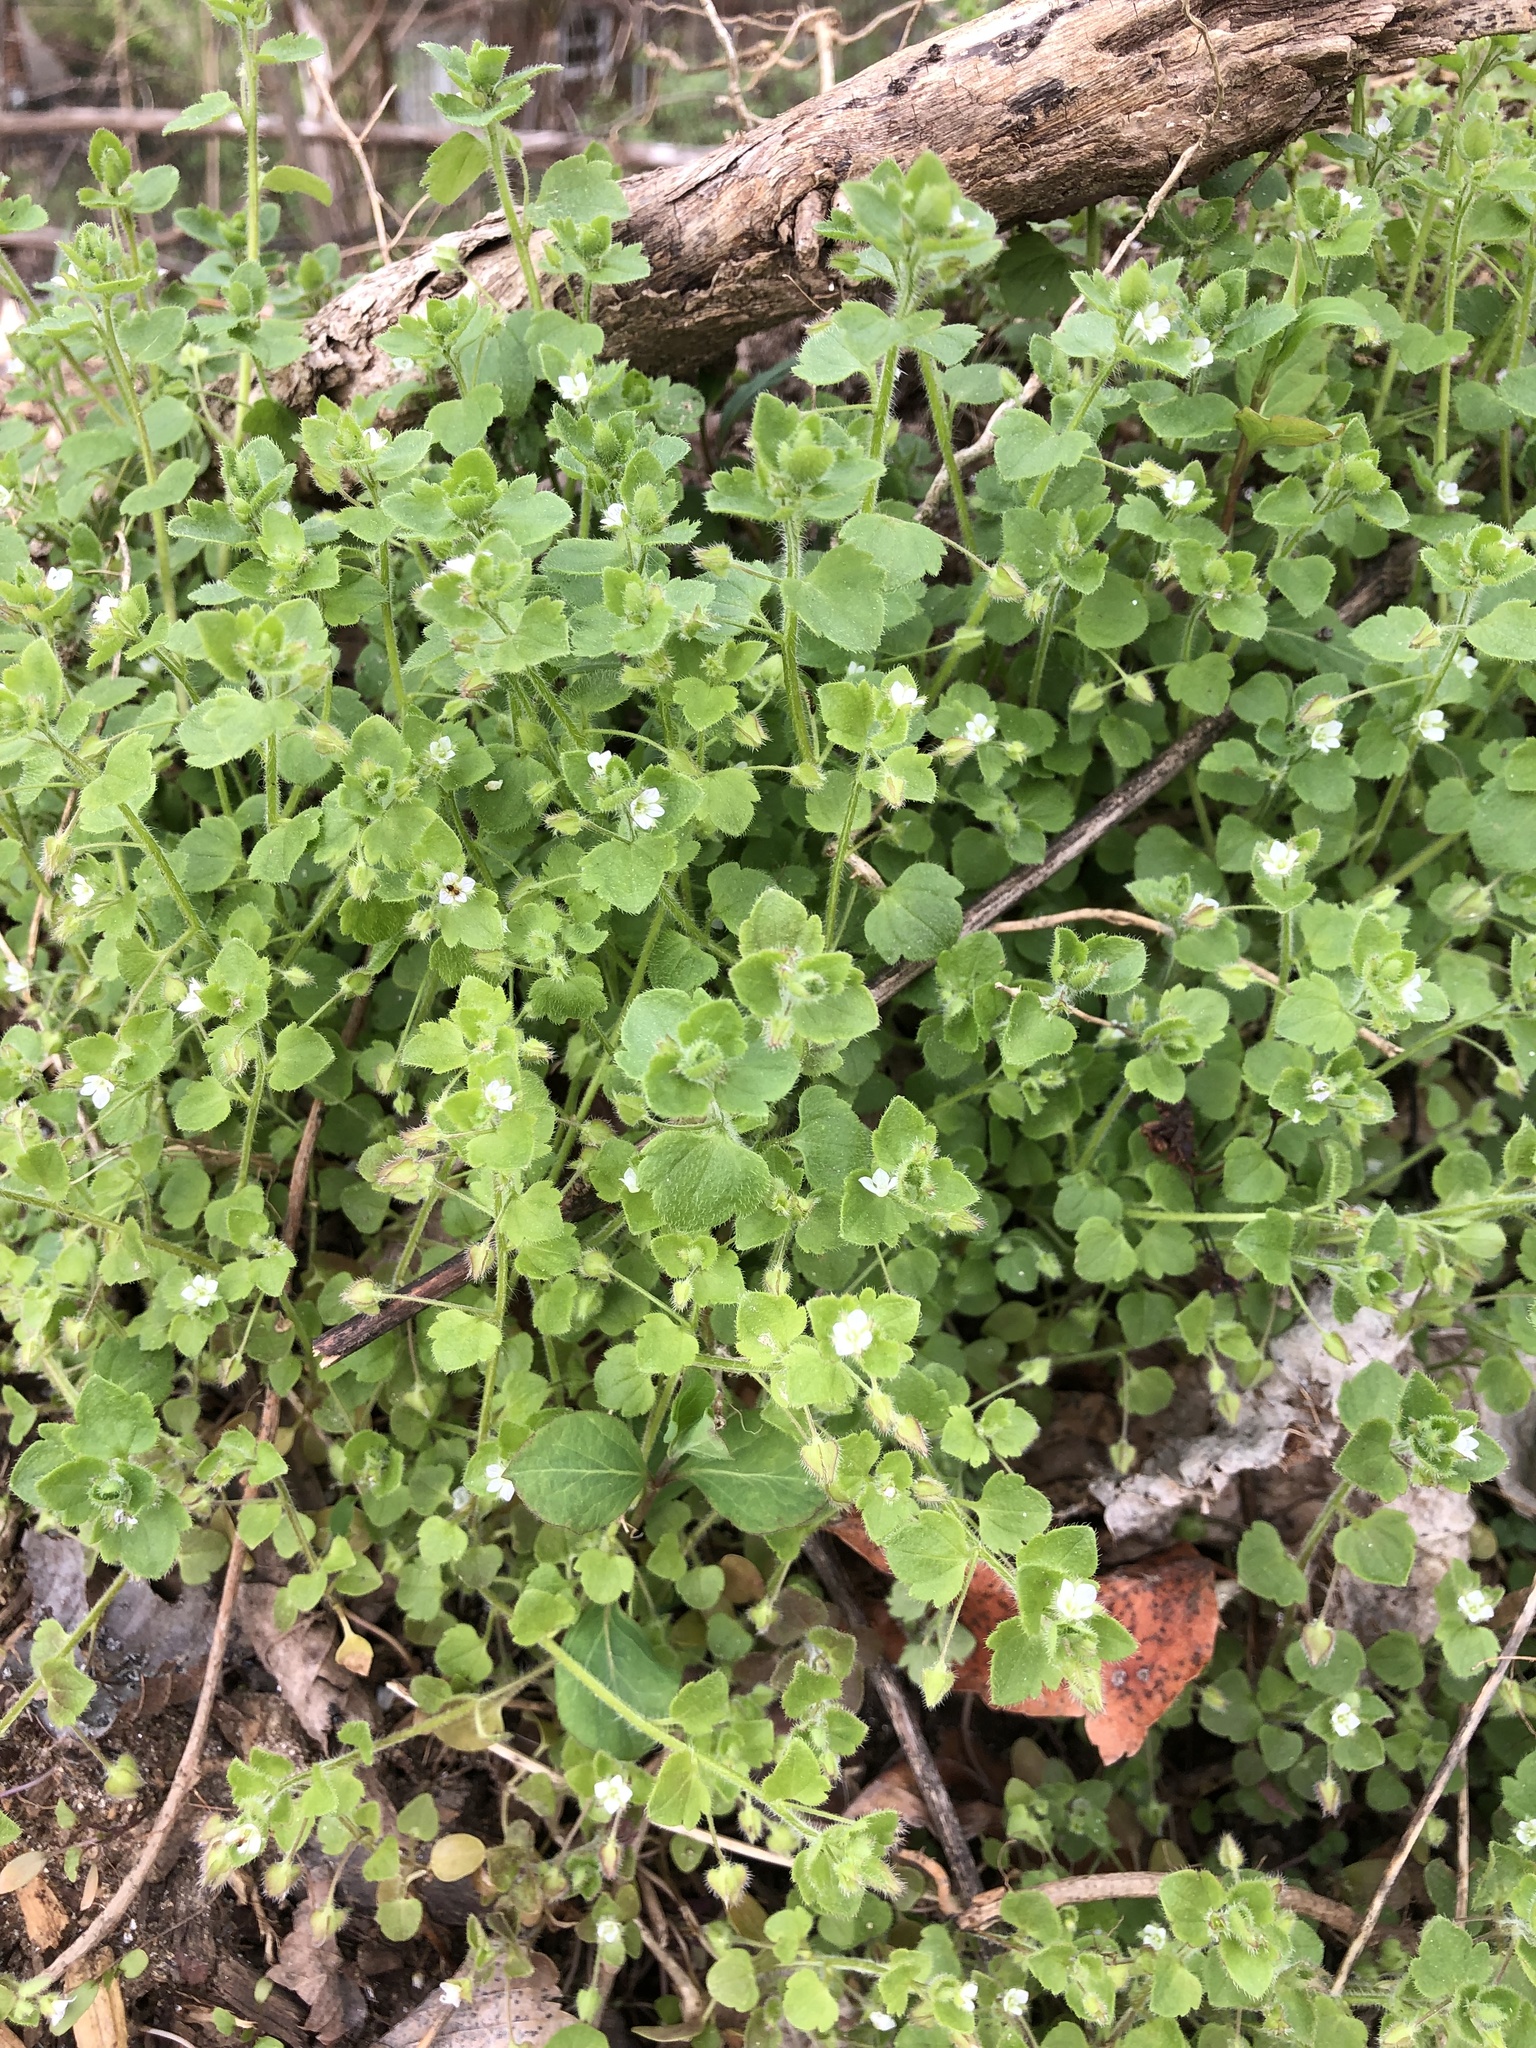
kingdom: Plantae
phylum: Tracheophyta
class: Magnoliopsida
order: Lamiales
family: Plantaginaceae
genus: Veronica
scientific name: Veronica sublobata
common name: False ivy-leaved speedwell
